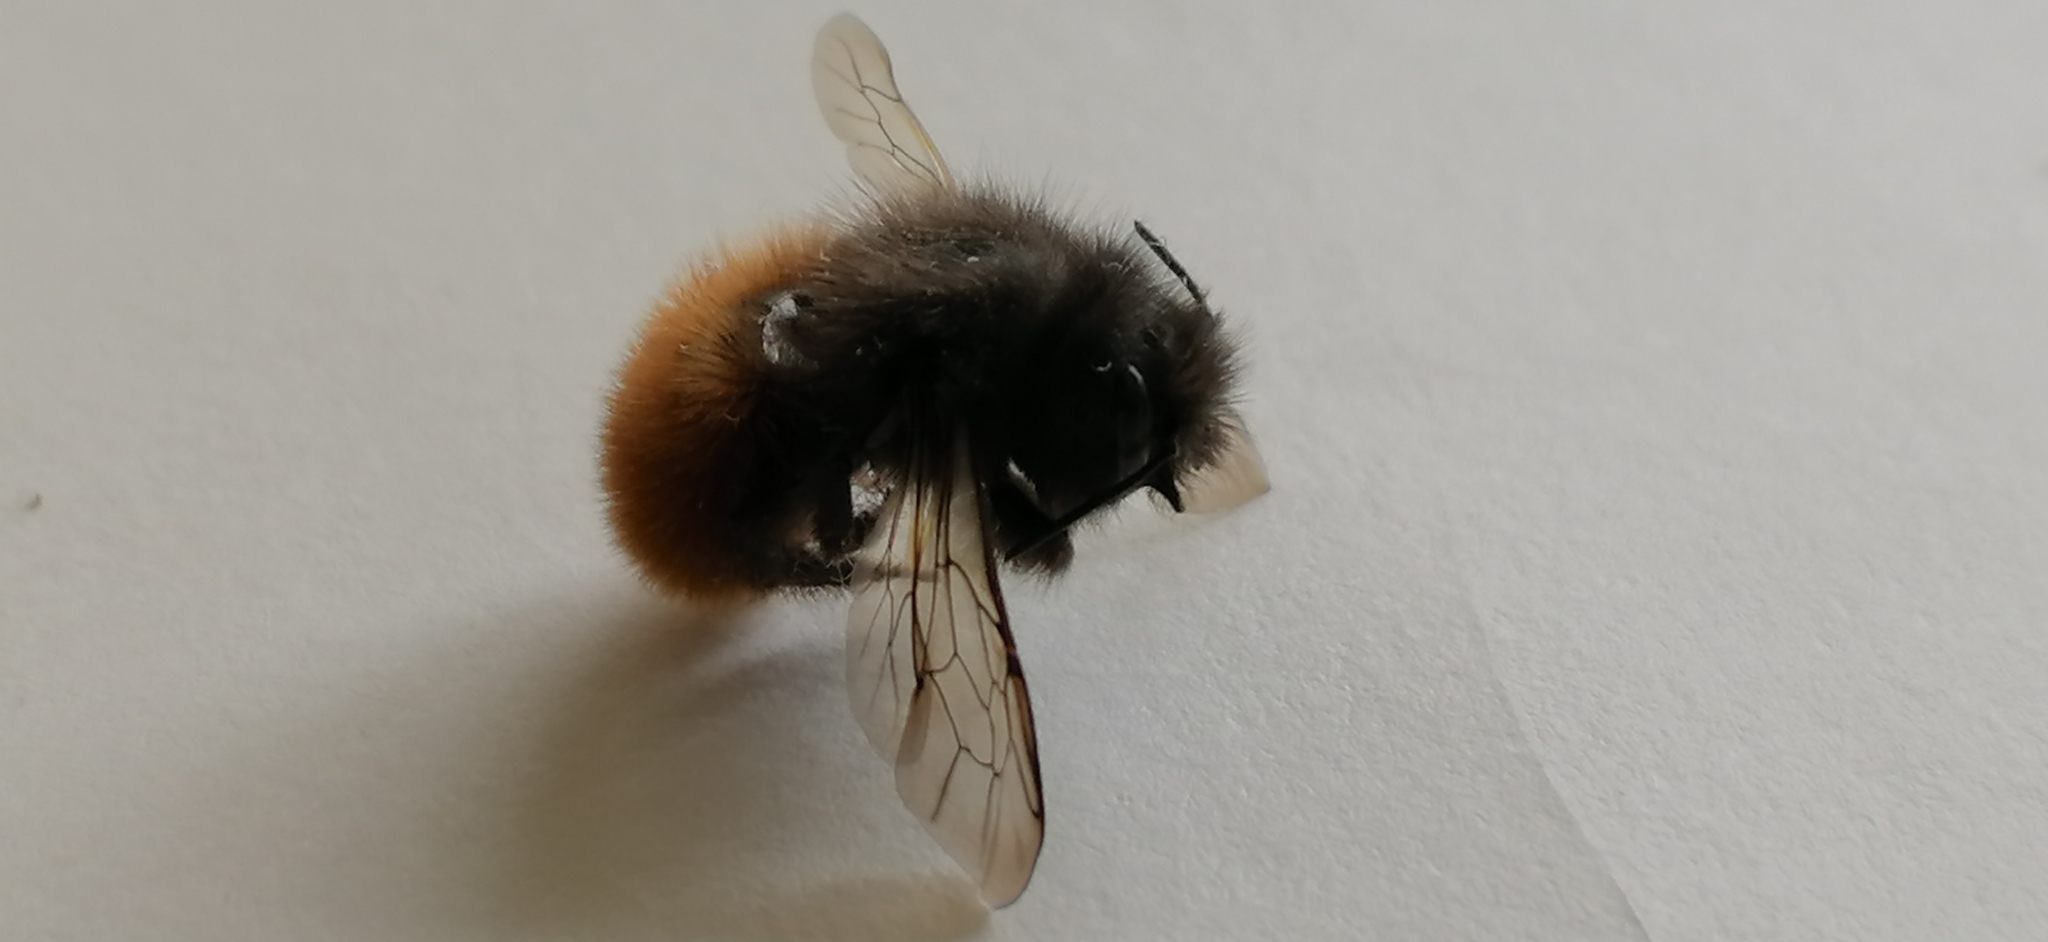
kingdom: Animalia
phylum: Arthropoda
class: Insecta
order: Hymenoptera
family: Megachilidae
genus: Osmia
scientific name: Osmia cornuta
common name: Mason bee
